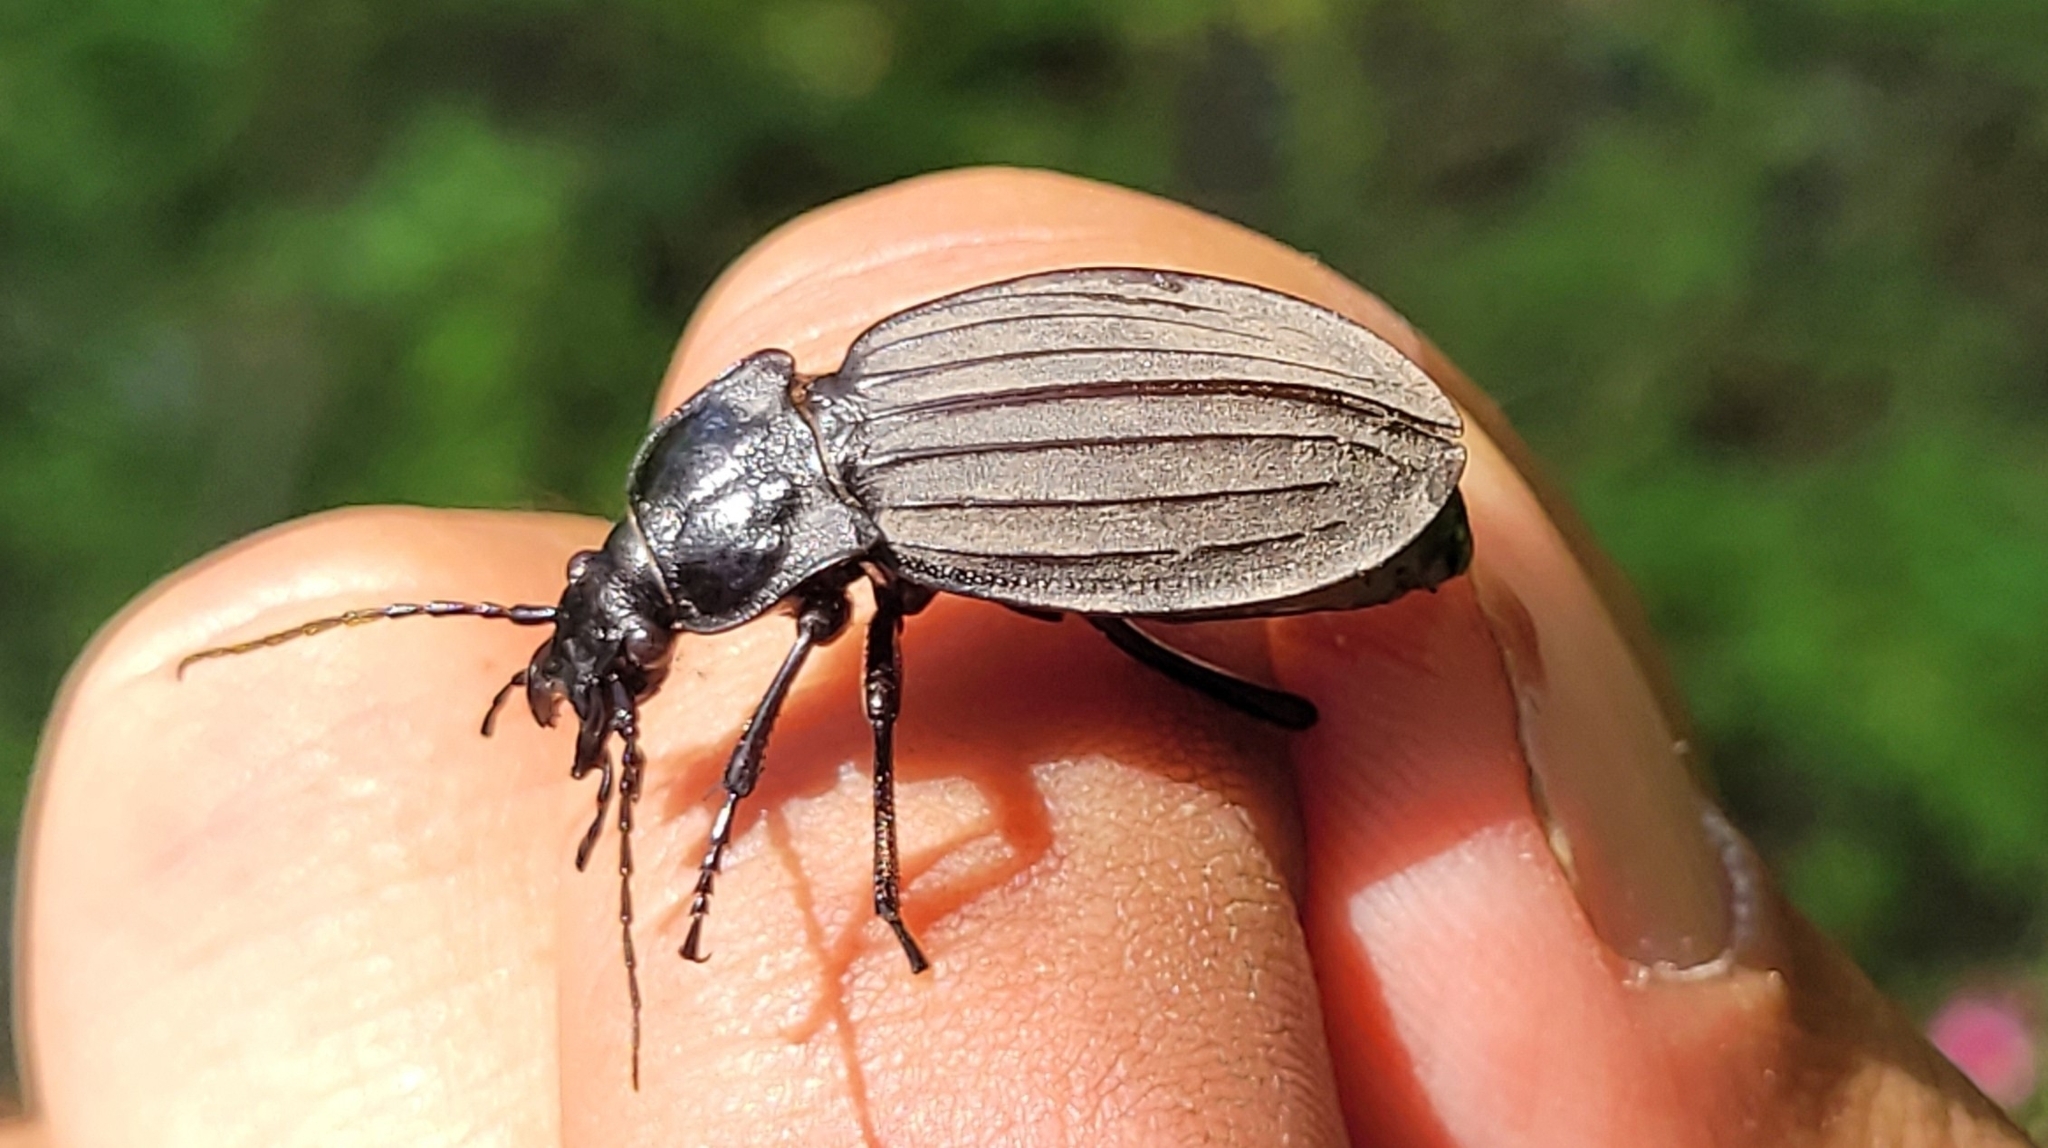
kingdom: Animalia
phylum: Arthropoda
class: Insecta
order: Coleoptera
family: Carabidae
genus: Carabus
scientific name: Carabus cateniger
